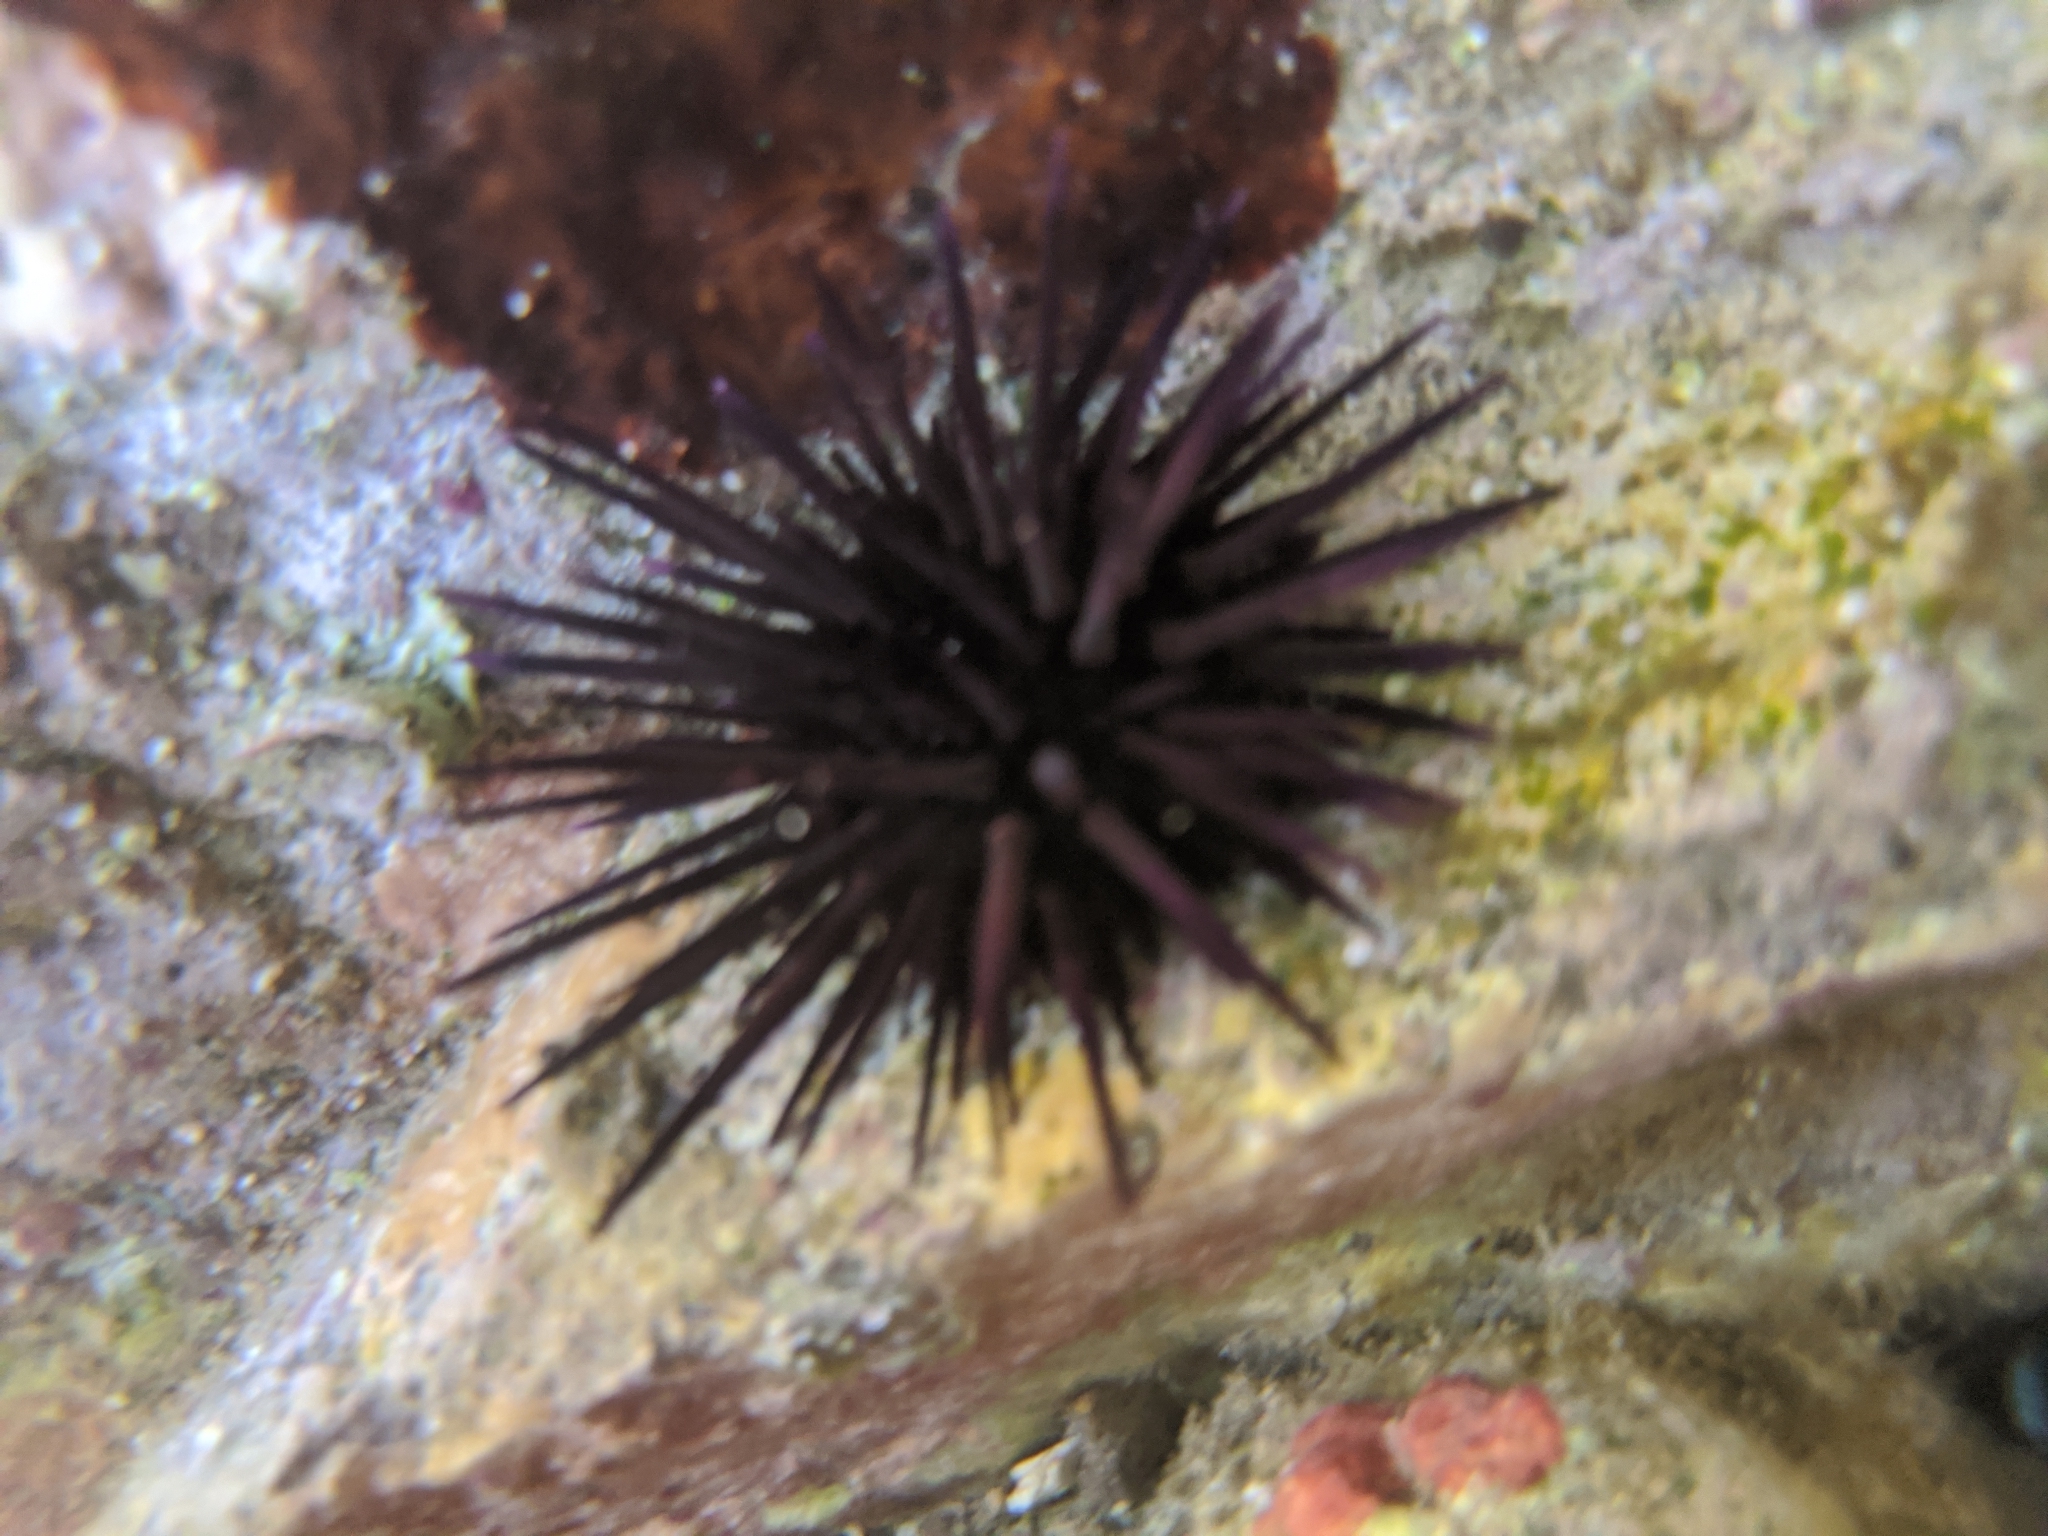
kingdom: Animalia
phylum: Echinodermata
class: Echinoidea
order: Camarodonta
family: Echinometridae
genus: Echinometra
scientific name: Echinometra vanbrunti
